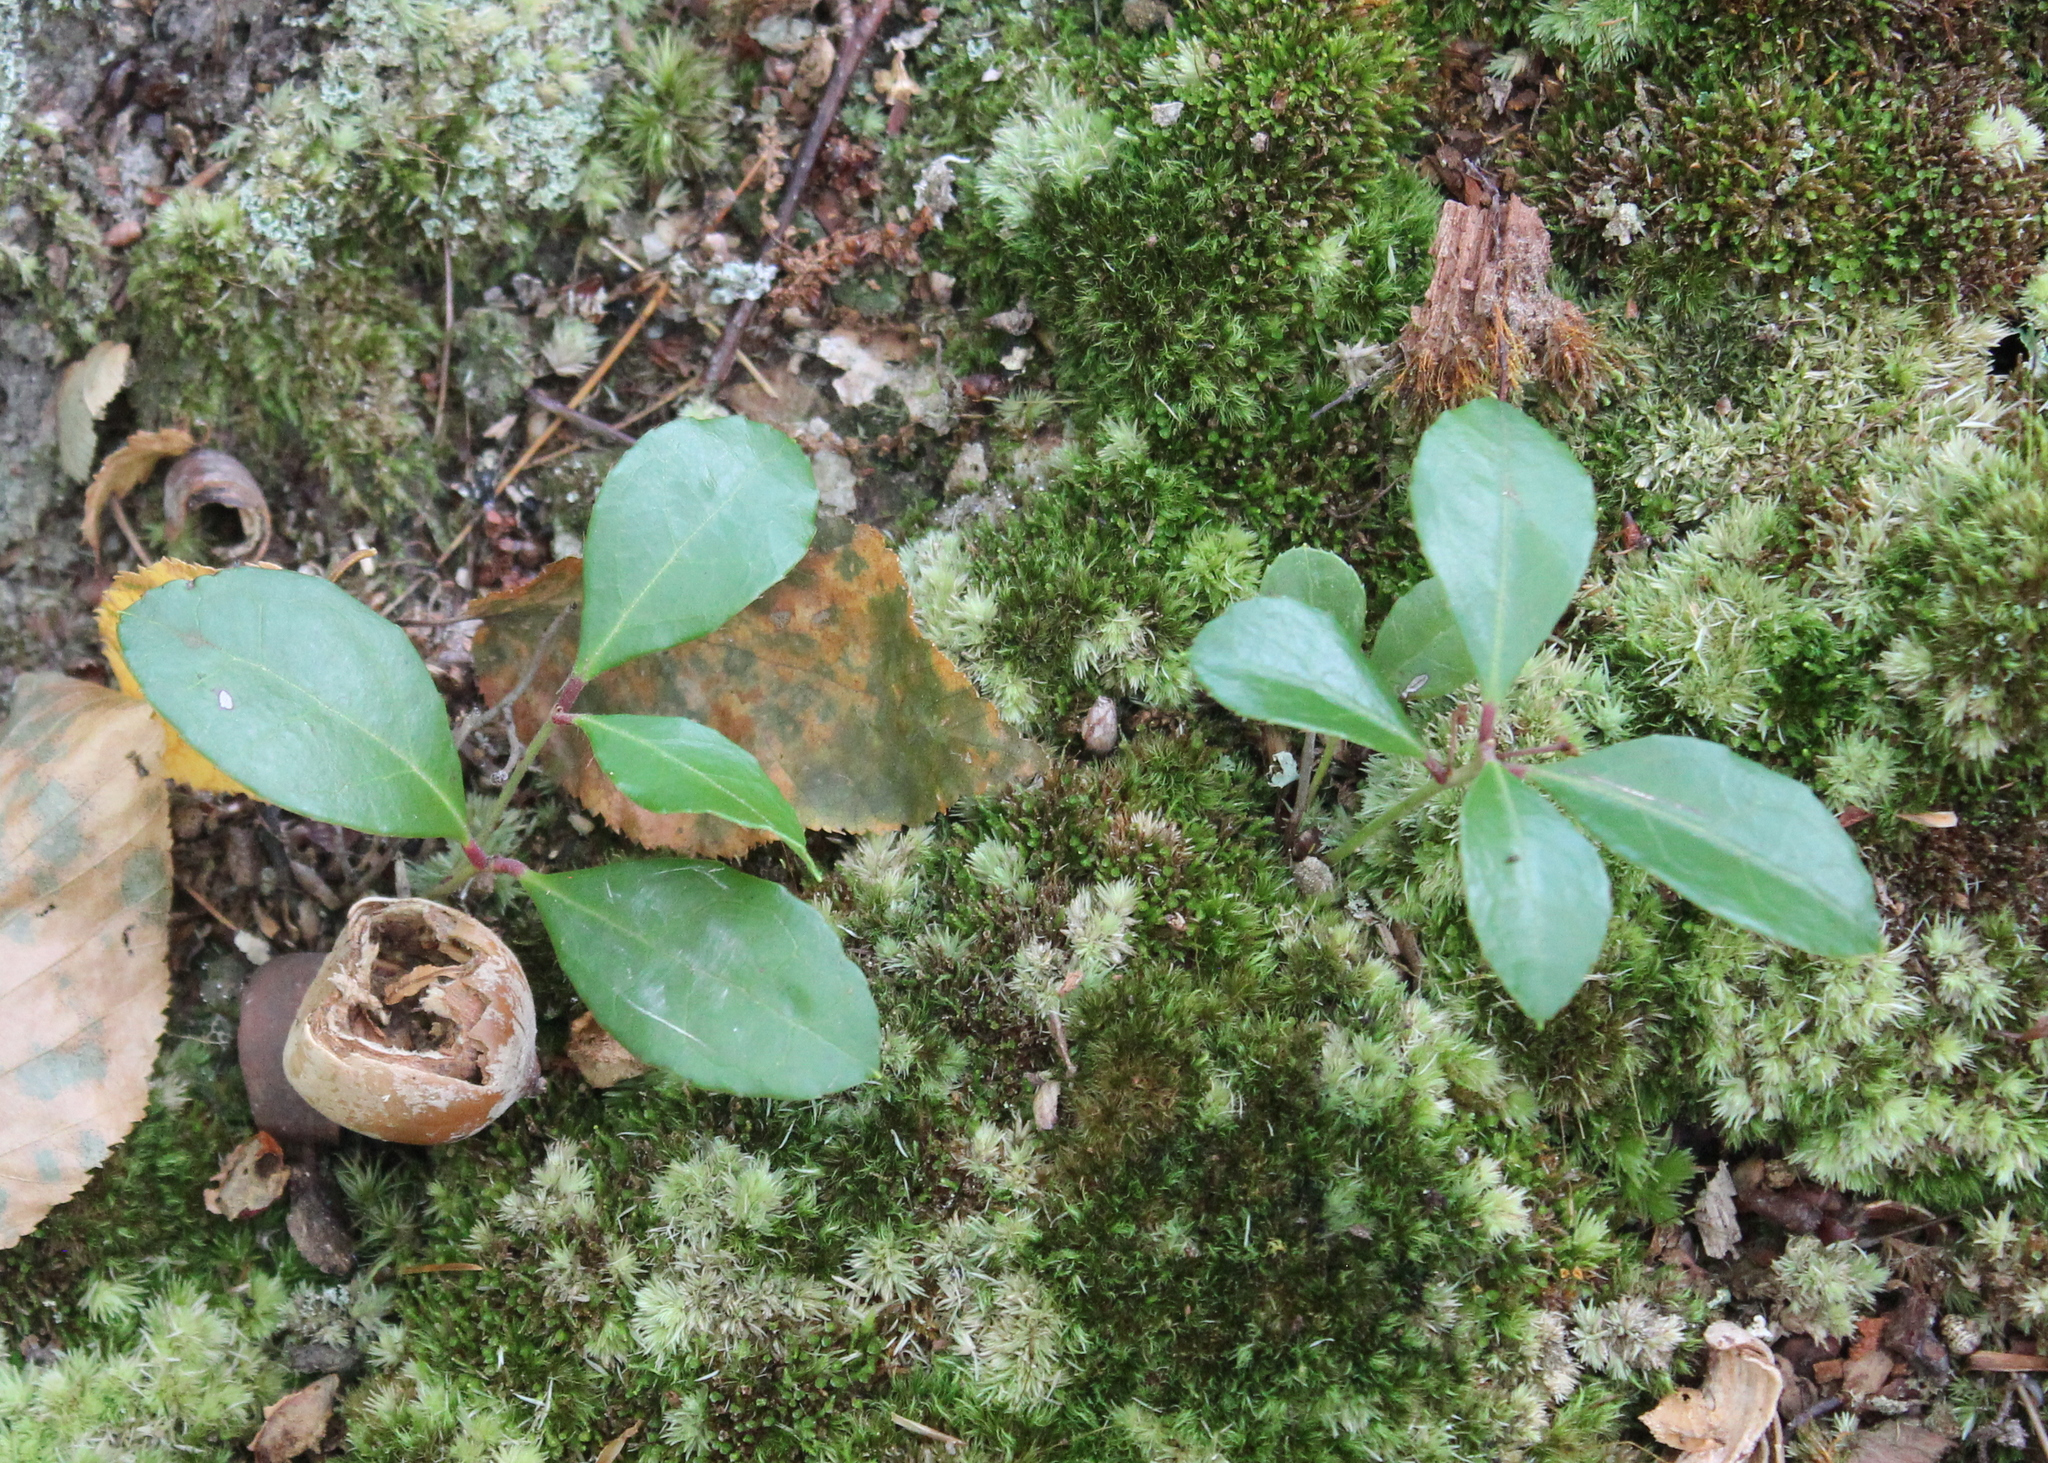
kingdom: Plantae
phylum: Tracheophyta
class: Magnoliopsida
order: Ericales
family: Ericaceae
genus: Gaultheria
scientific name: Gaultheria procumbens
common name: Checkerberry
